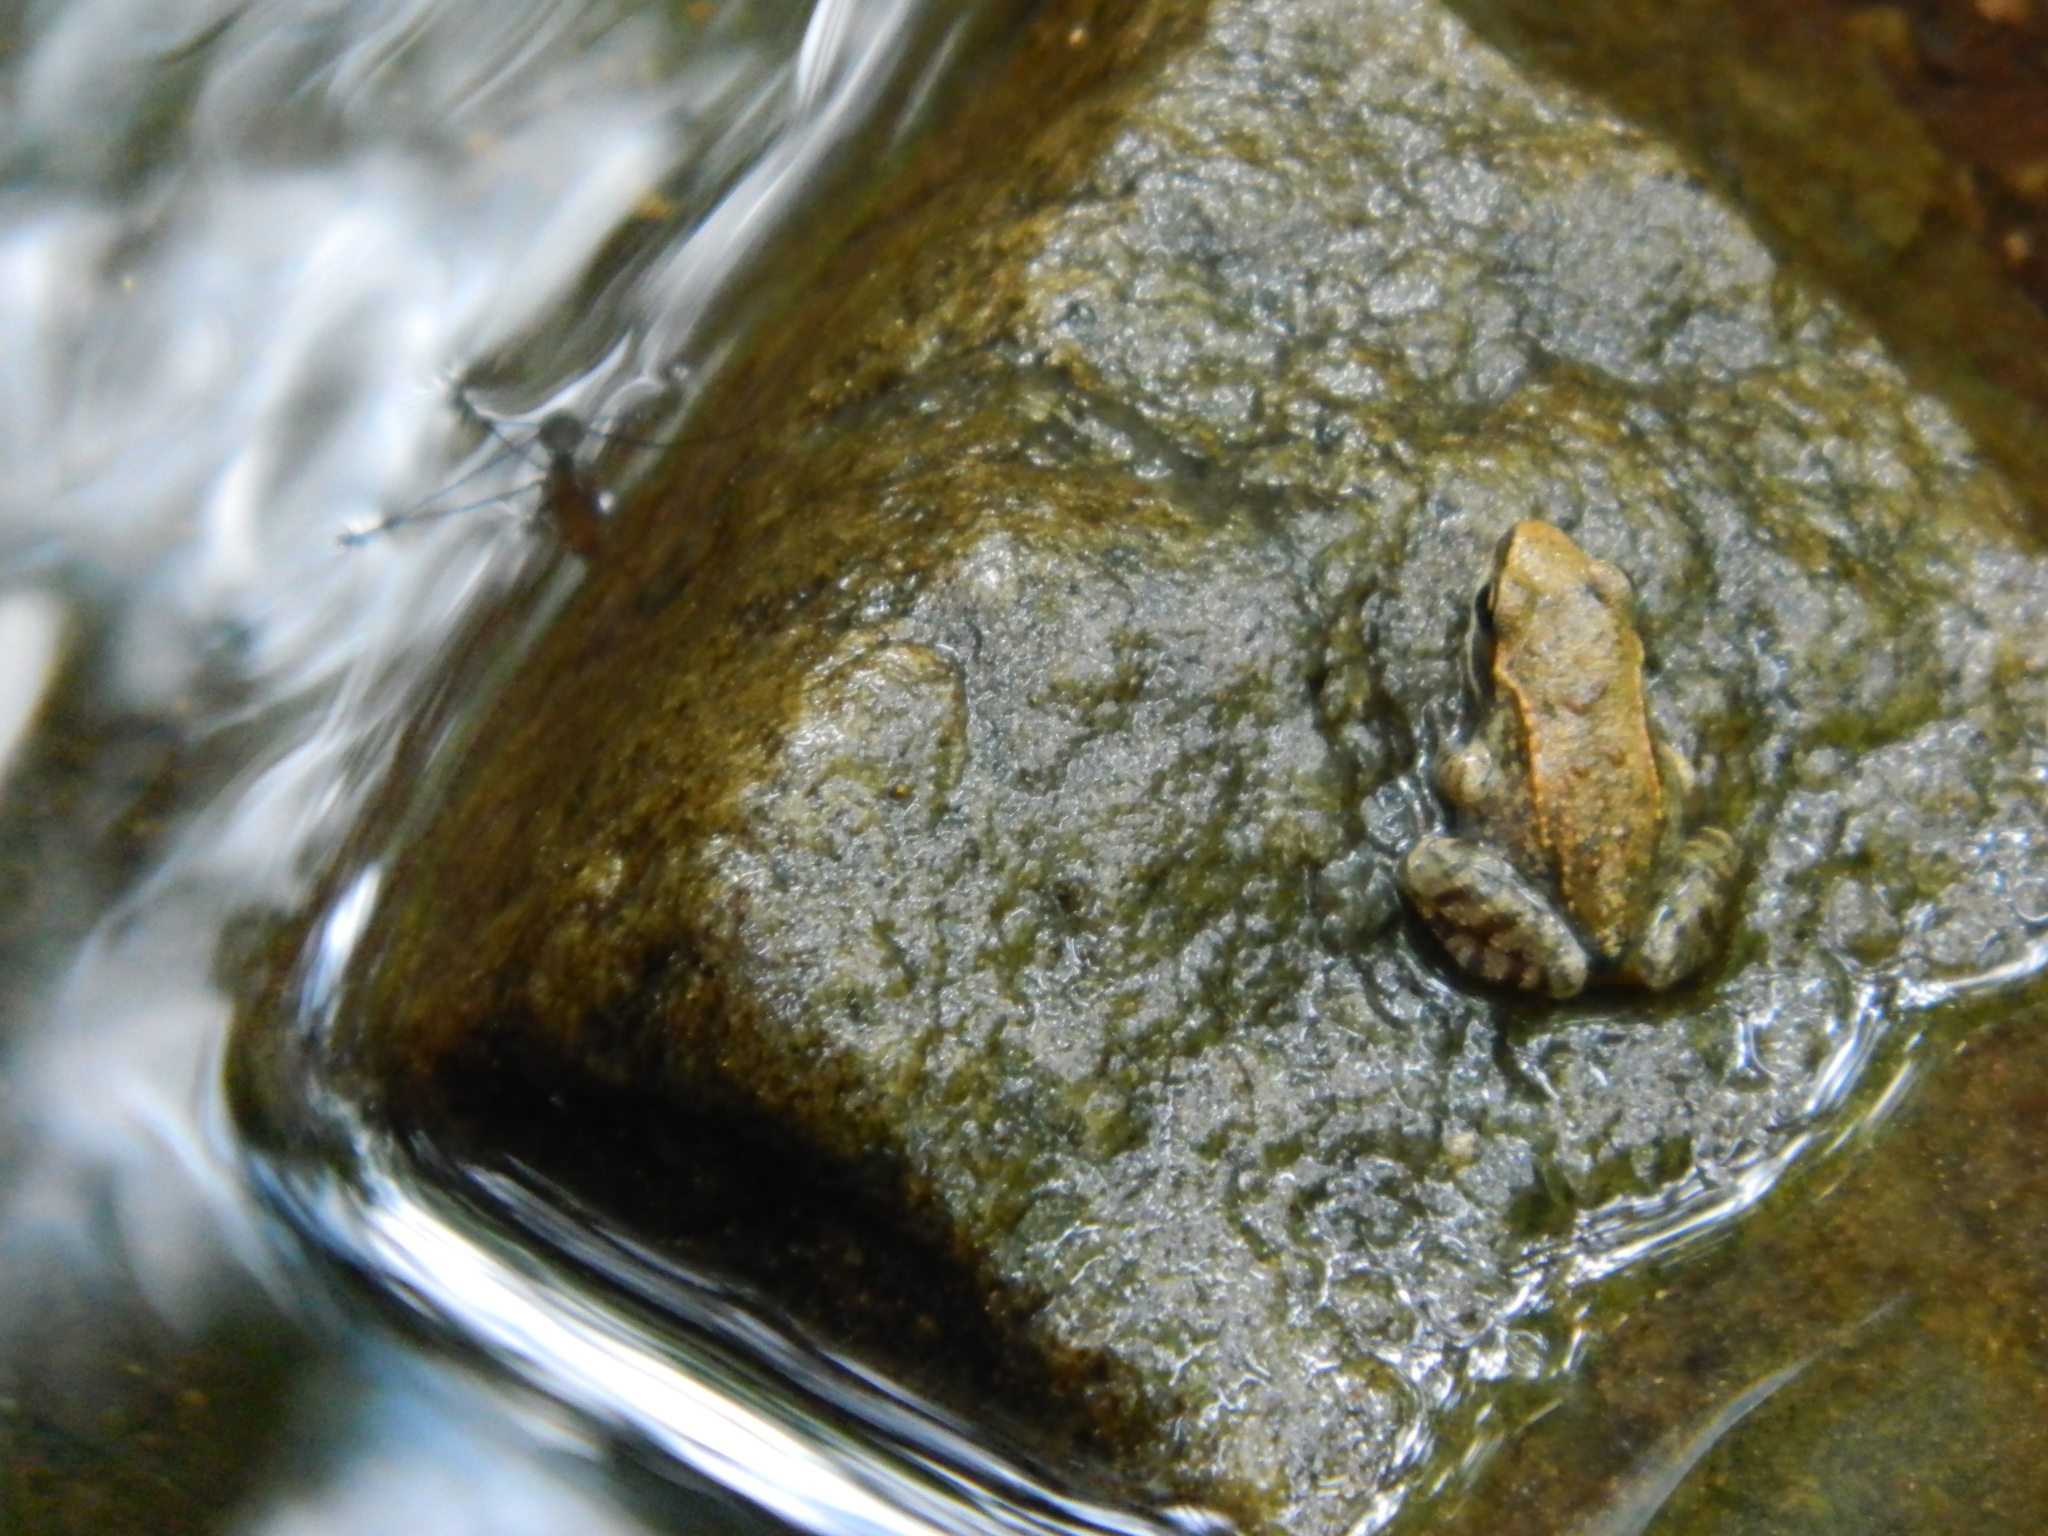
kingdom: Animalia
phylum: Chordata
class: Amphibia
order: Anura
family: Ranidae
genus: Lithobates
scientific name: Lithobates sylvaticus
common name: Wood frog
